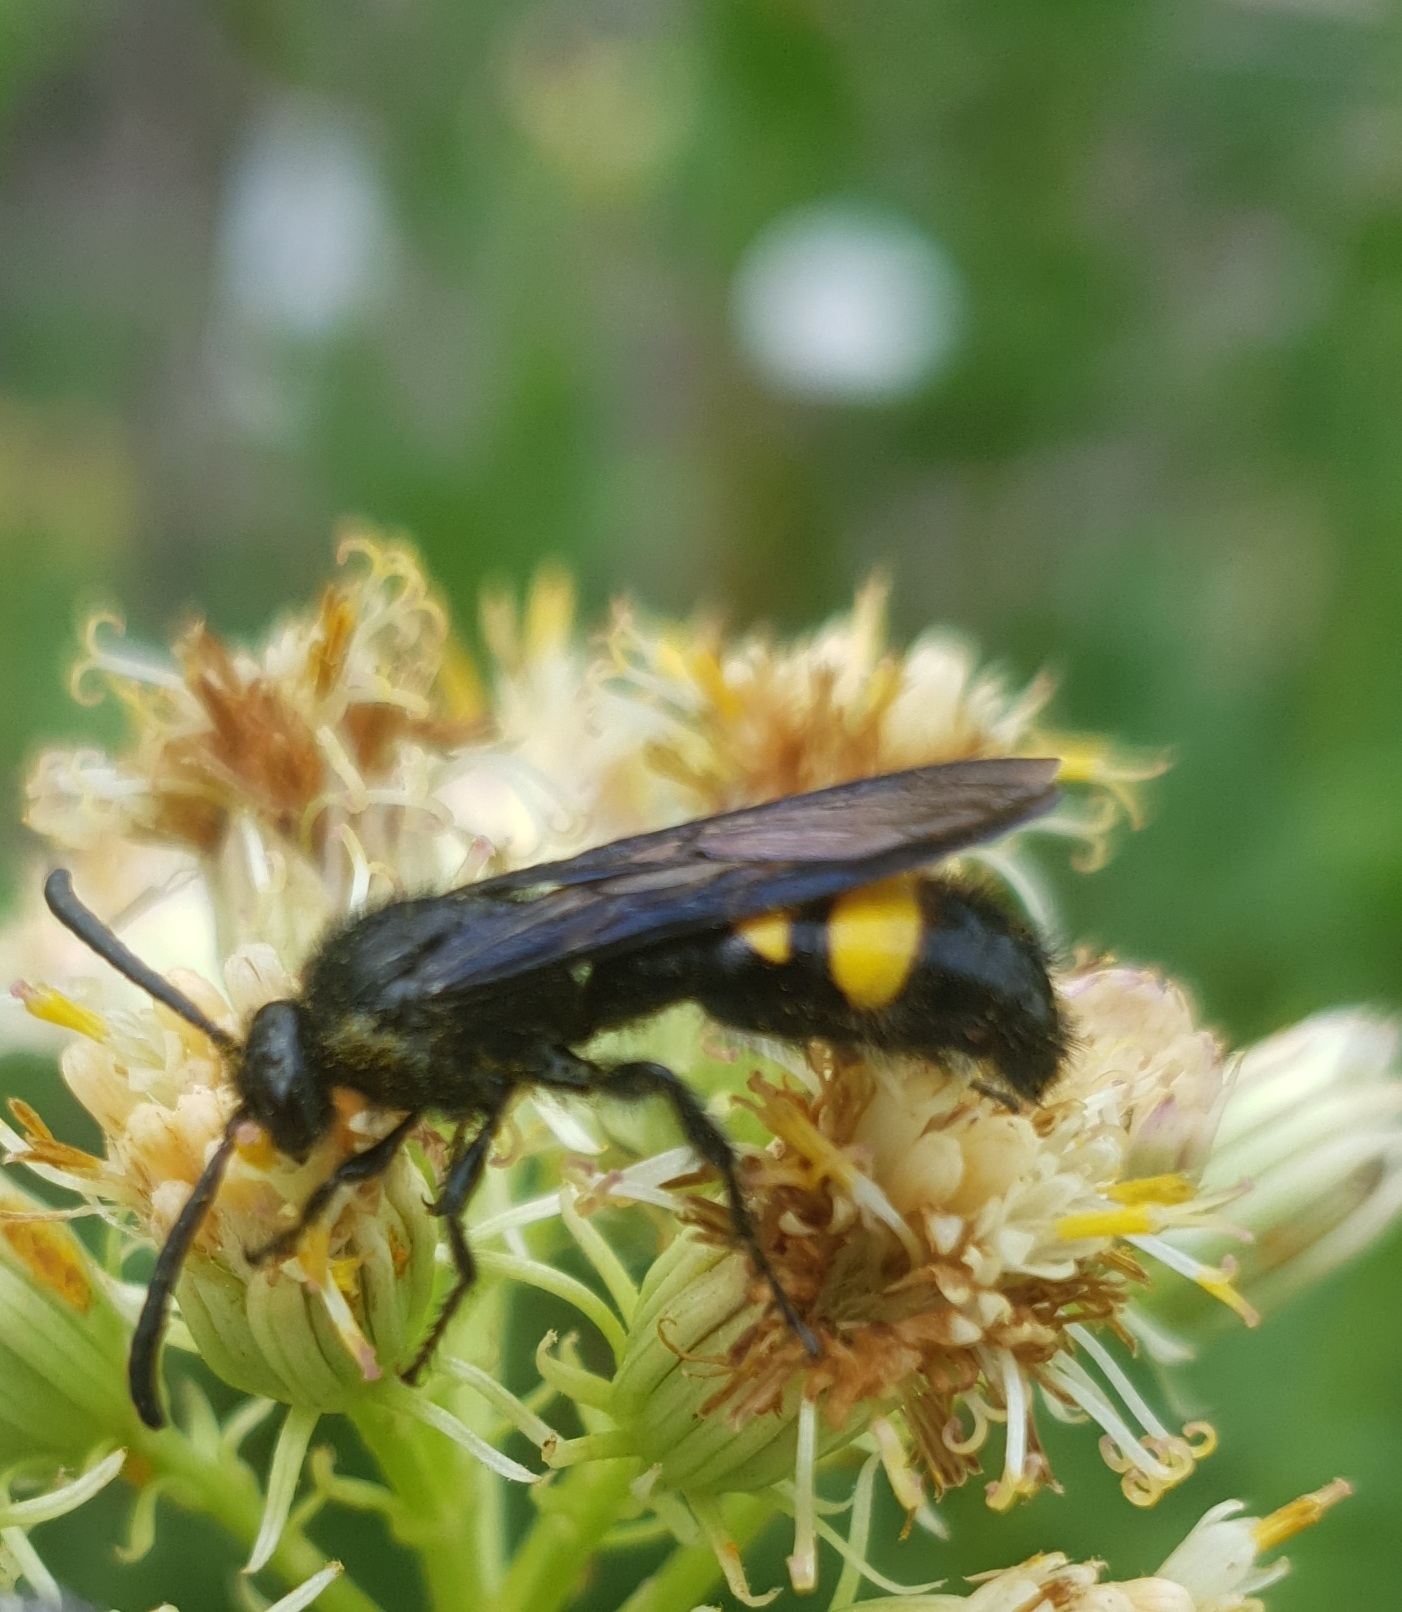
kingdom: Animalia
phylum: Arthropoda
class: Insecta
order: Hymenoptera
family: Scoliidae
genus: Scolia
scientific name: Scolia hirta
